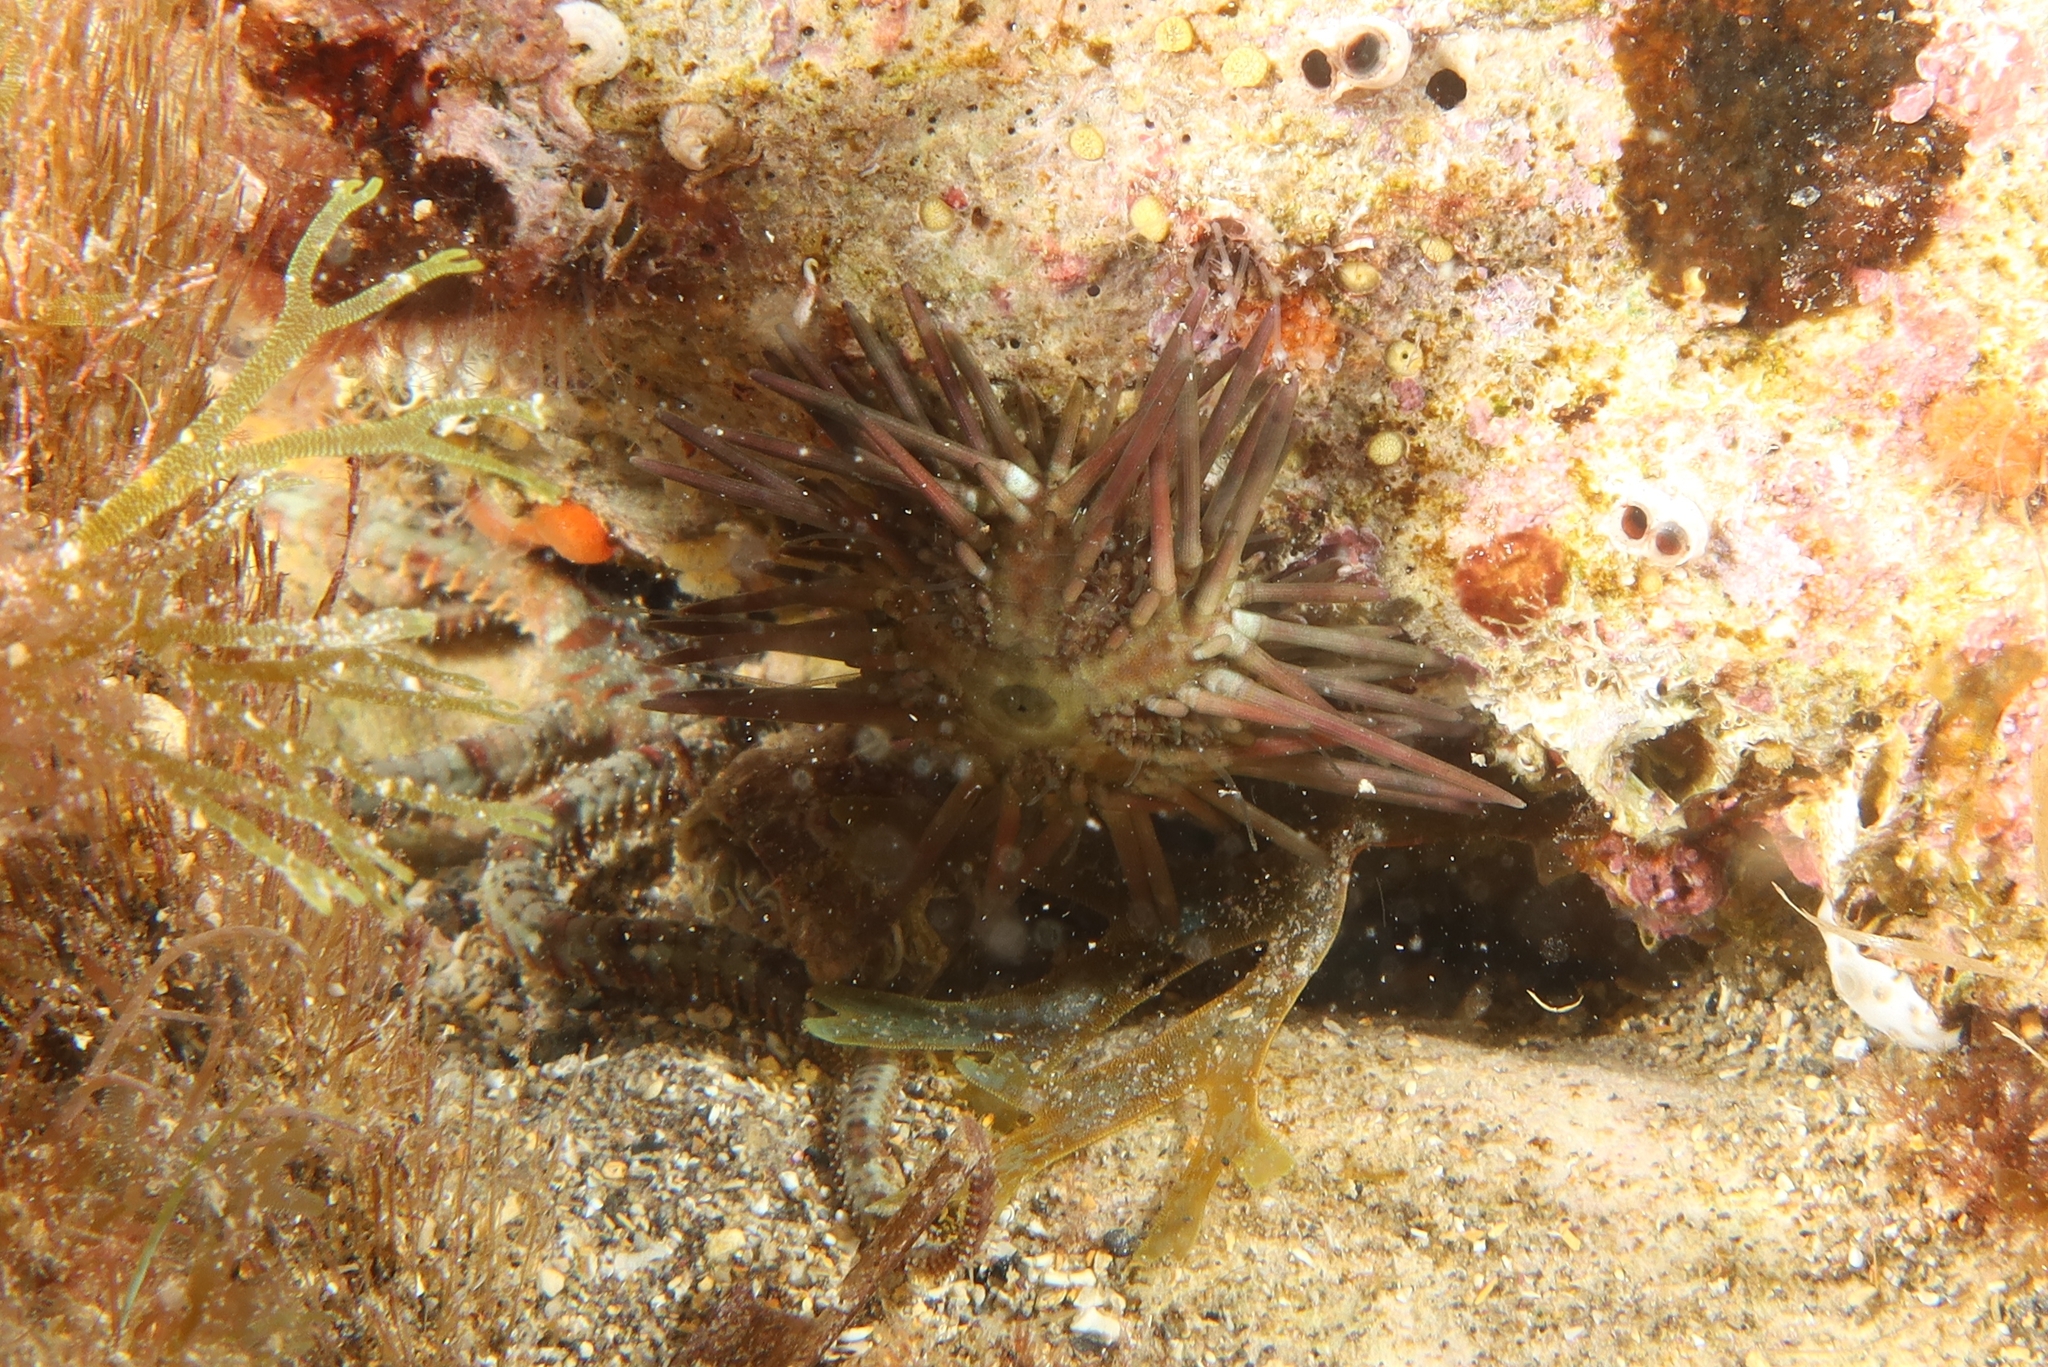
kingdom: Animalia
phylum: Echinodermata
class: Echinoidea
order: Arbacioida
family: Arbaciidae
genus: Arbacia
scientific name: Arbacia lixula
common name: Black sea urchin
